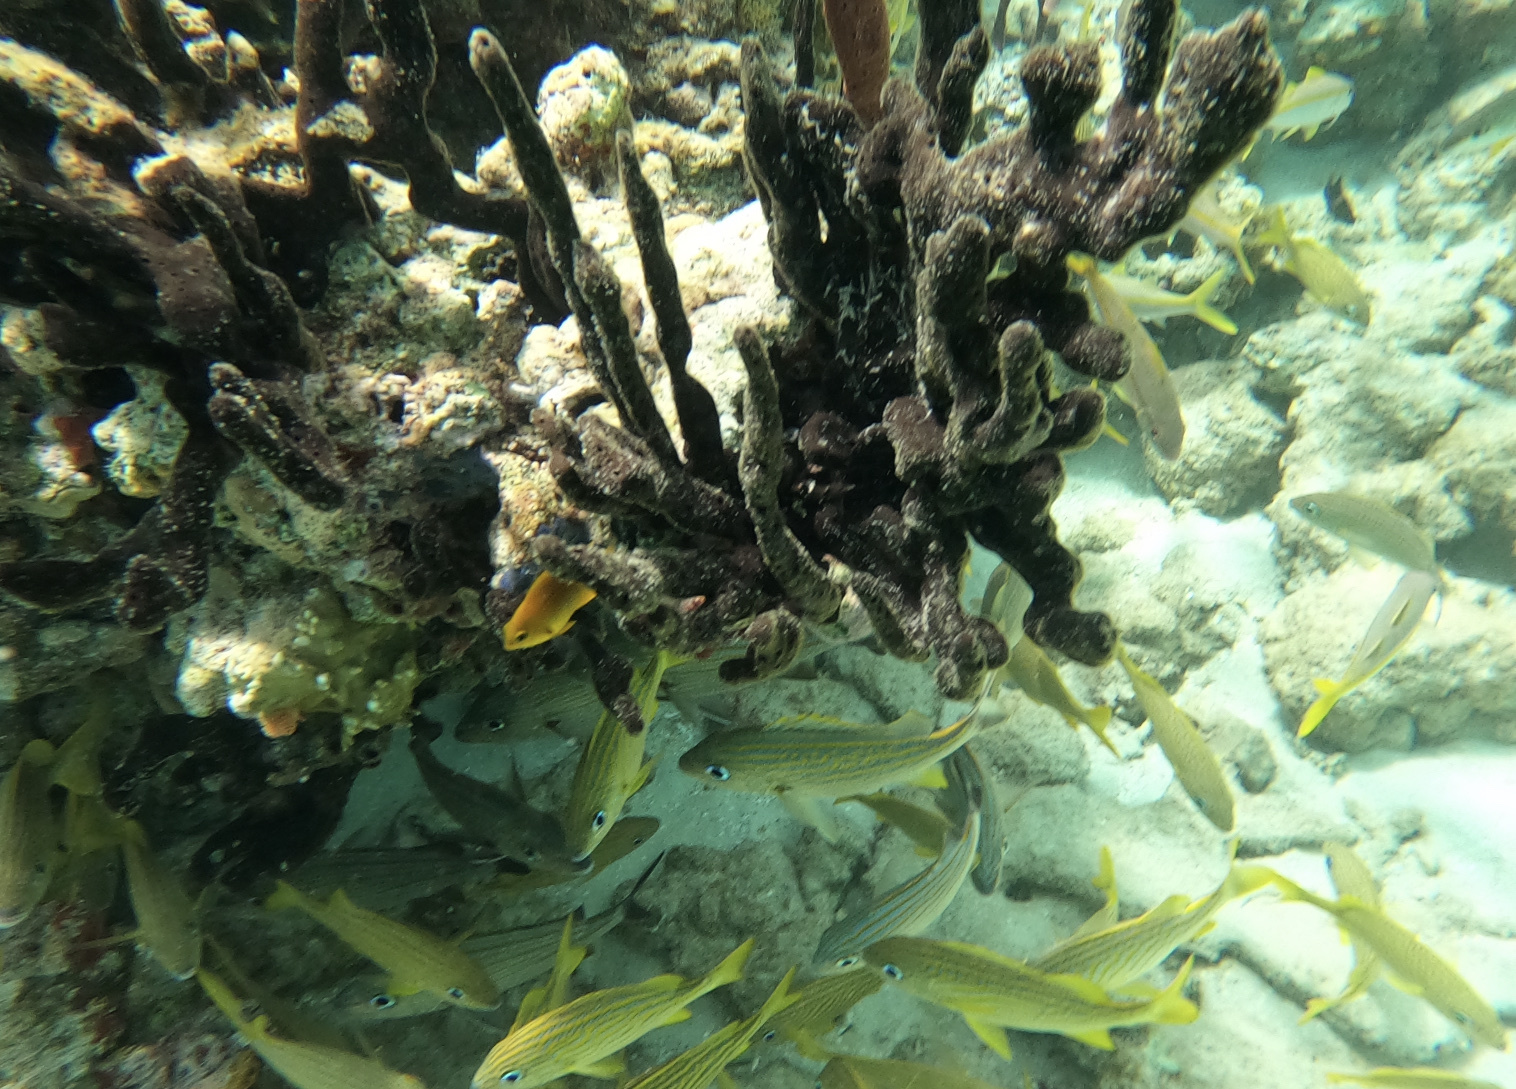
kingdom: Animalia
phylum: Porifera
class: Demospongiae
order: Haplosclerida
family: Phloeodictyidae
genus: Calyx
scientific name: Calyx podatypa
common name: Dark volcano sponge
